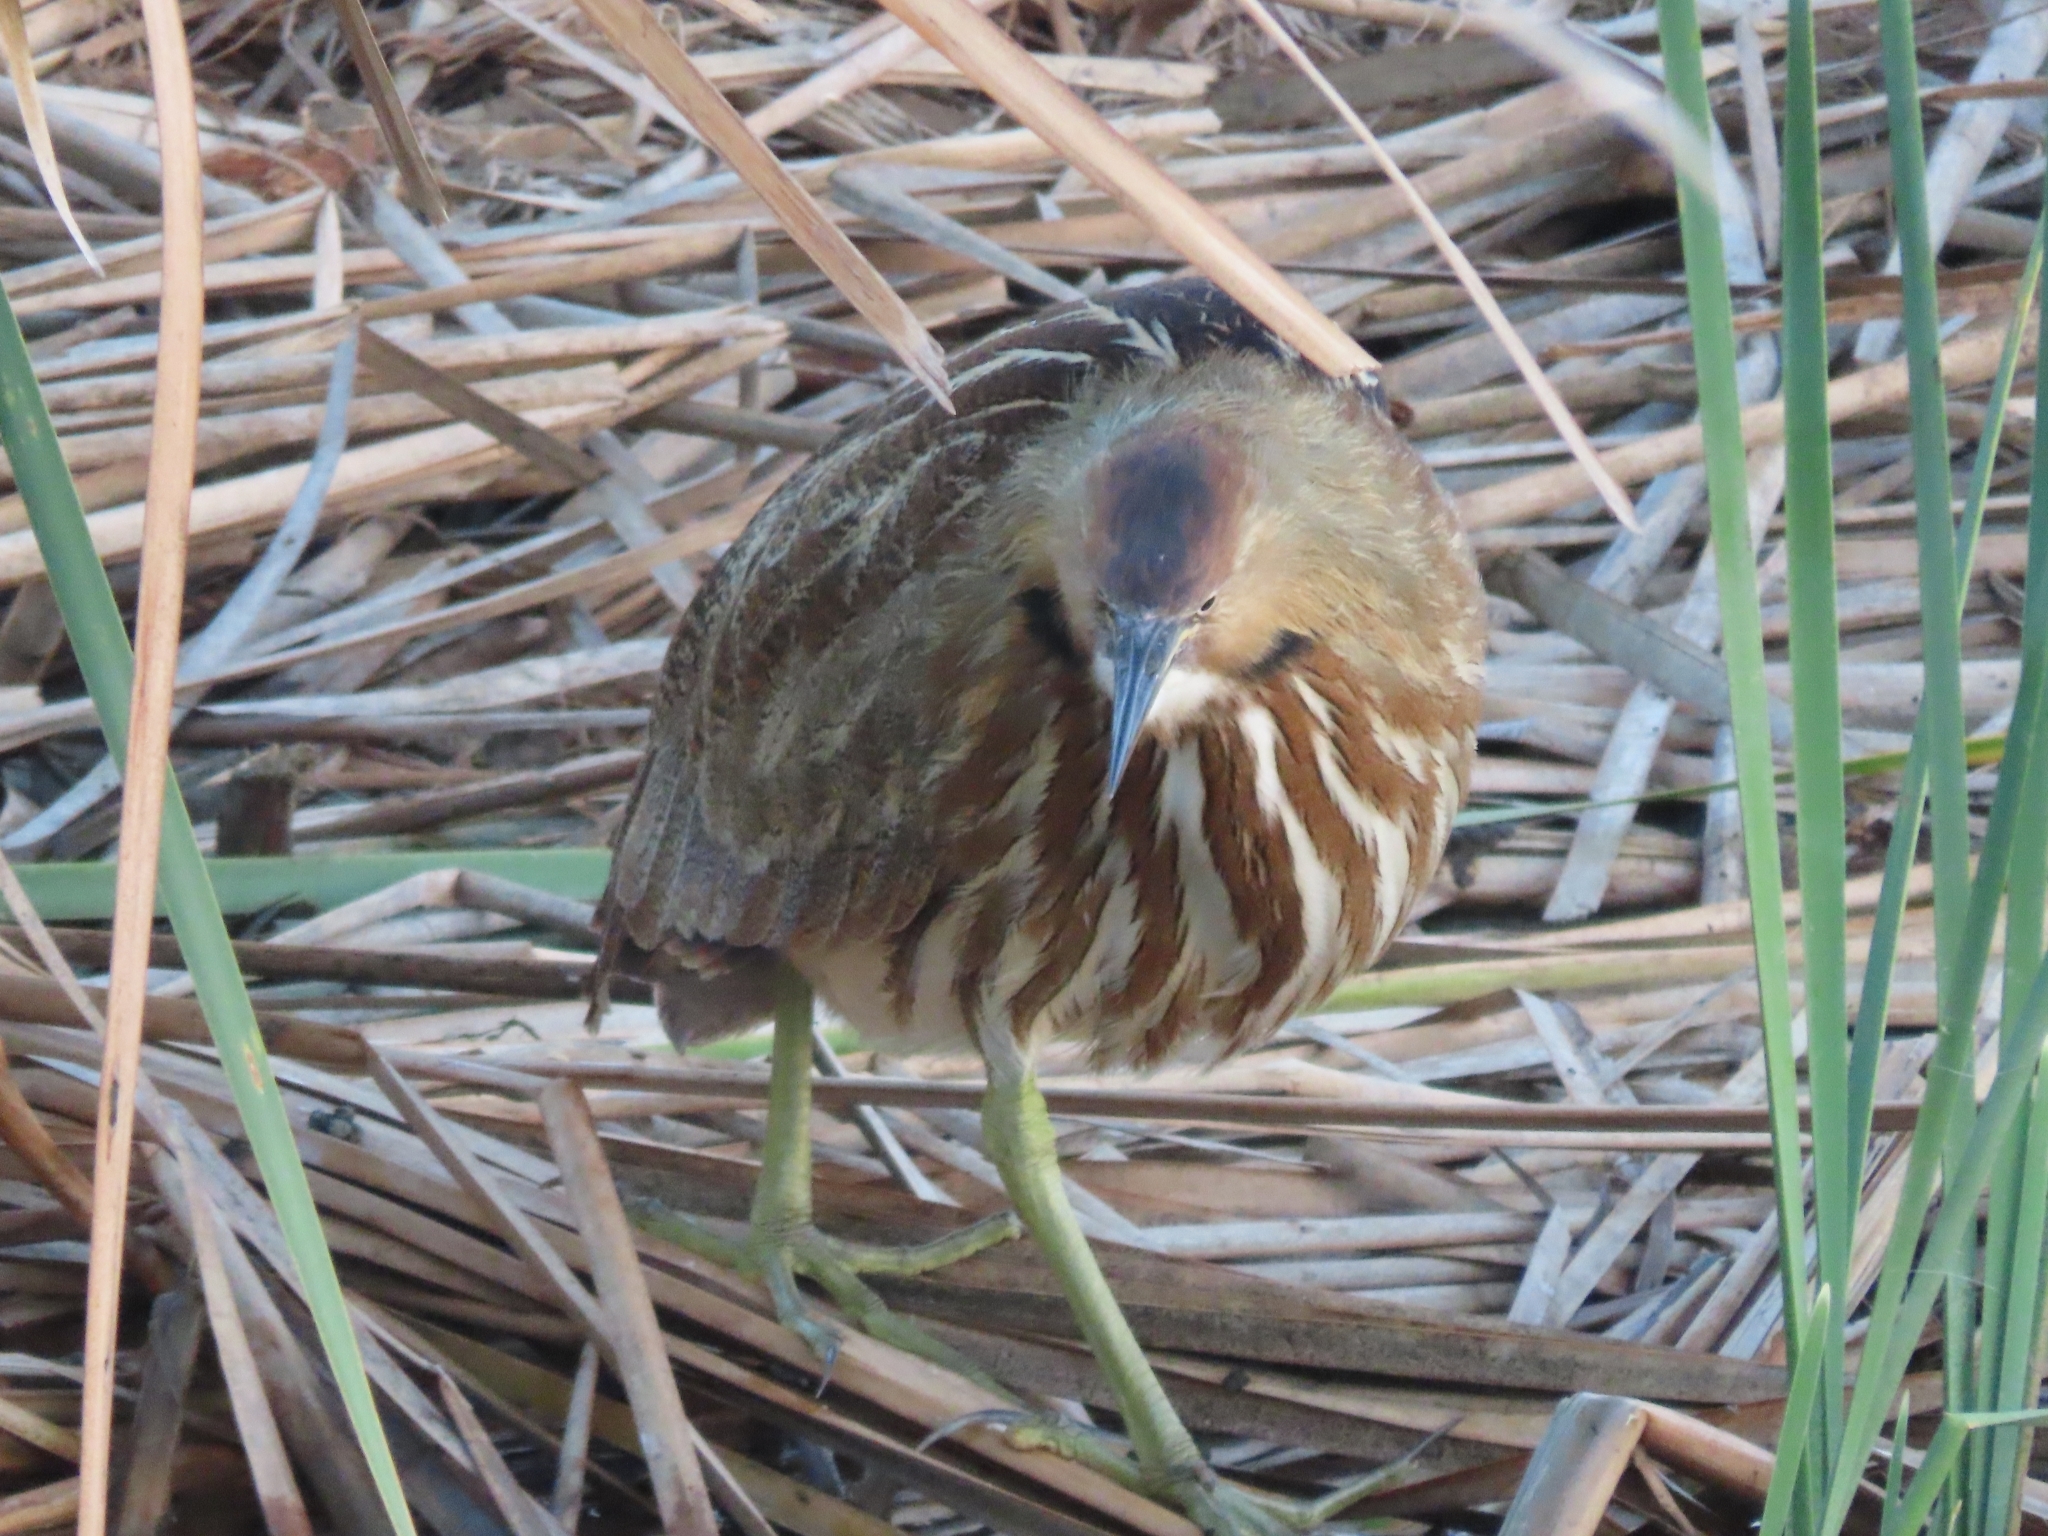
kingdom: Animalia
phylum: Chordata
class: Aves
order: Pelecaniformes
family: Ardeidae
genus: Botaurus
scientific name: Botaurus lentiginosus
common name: American bittern
